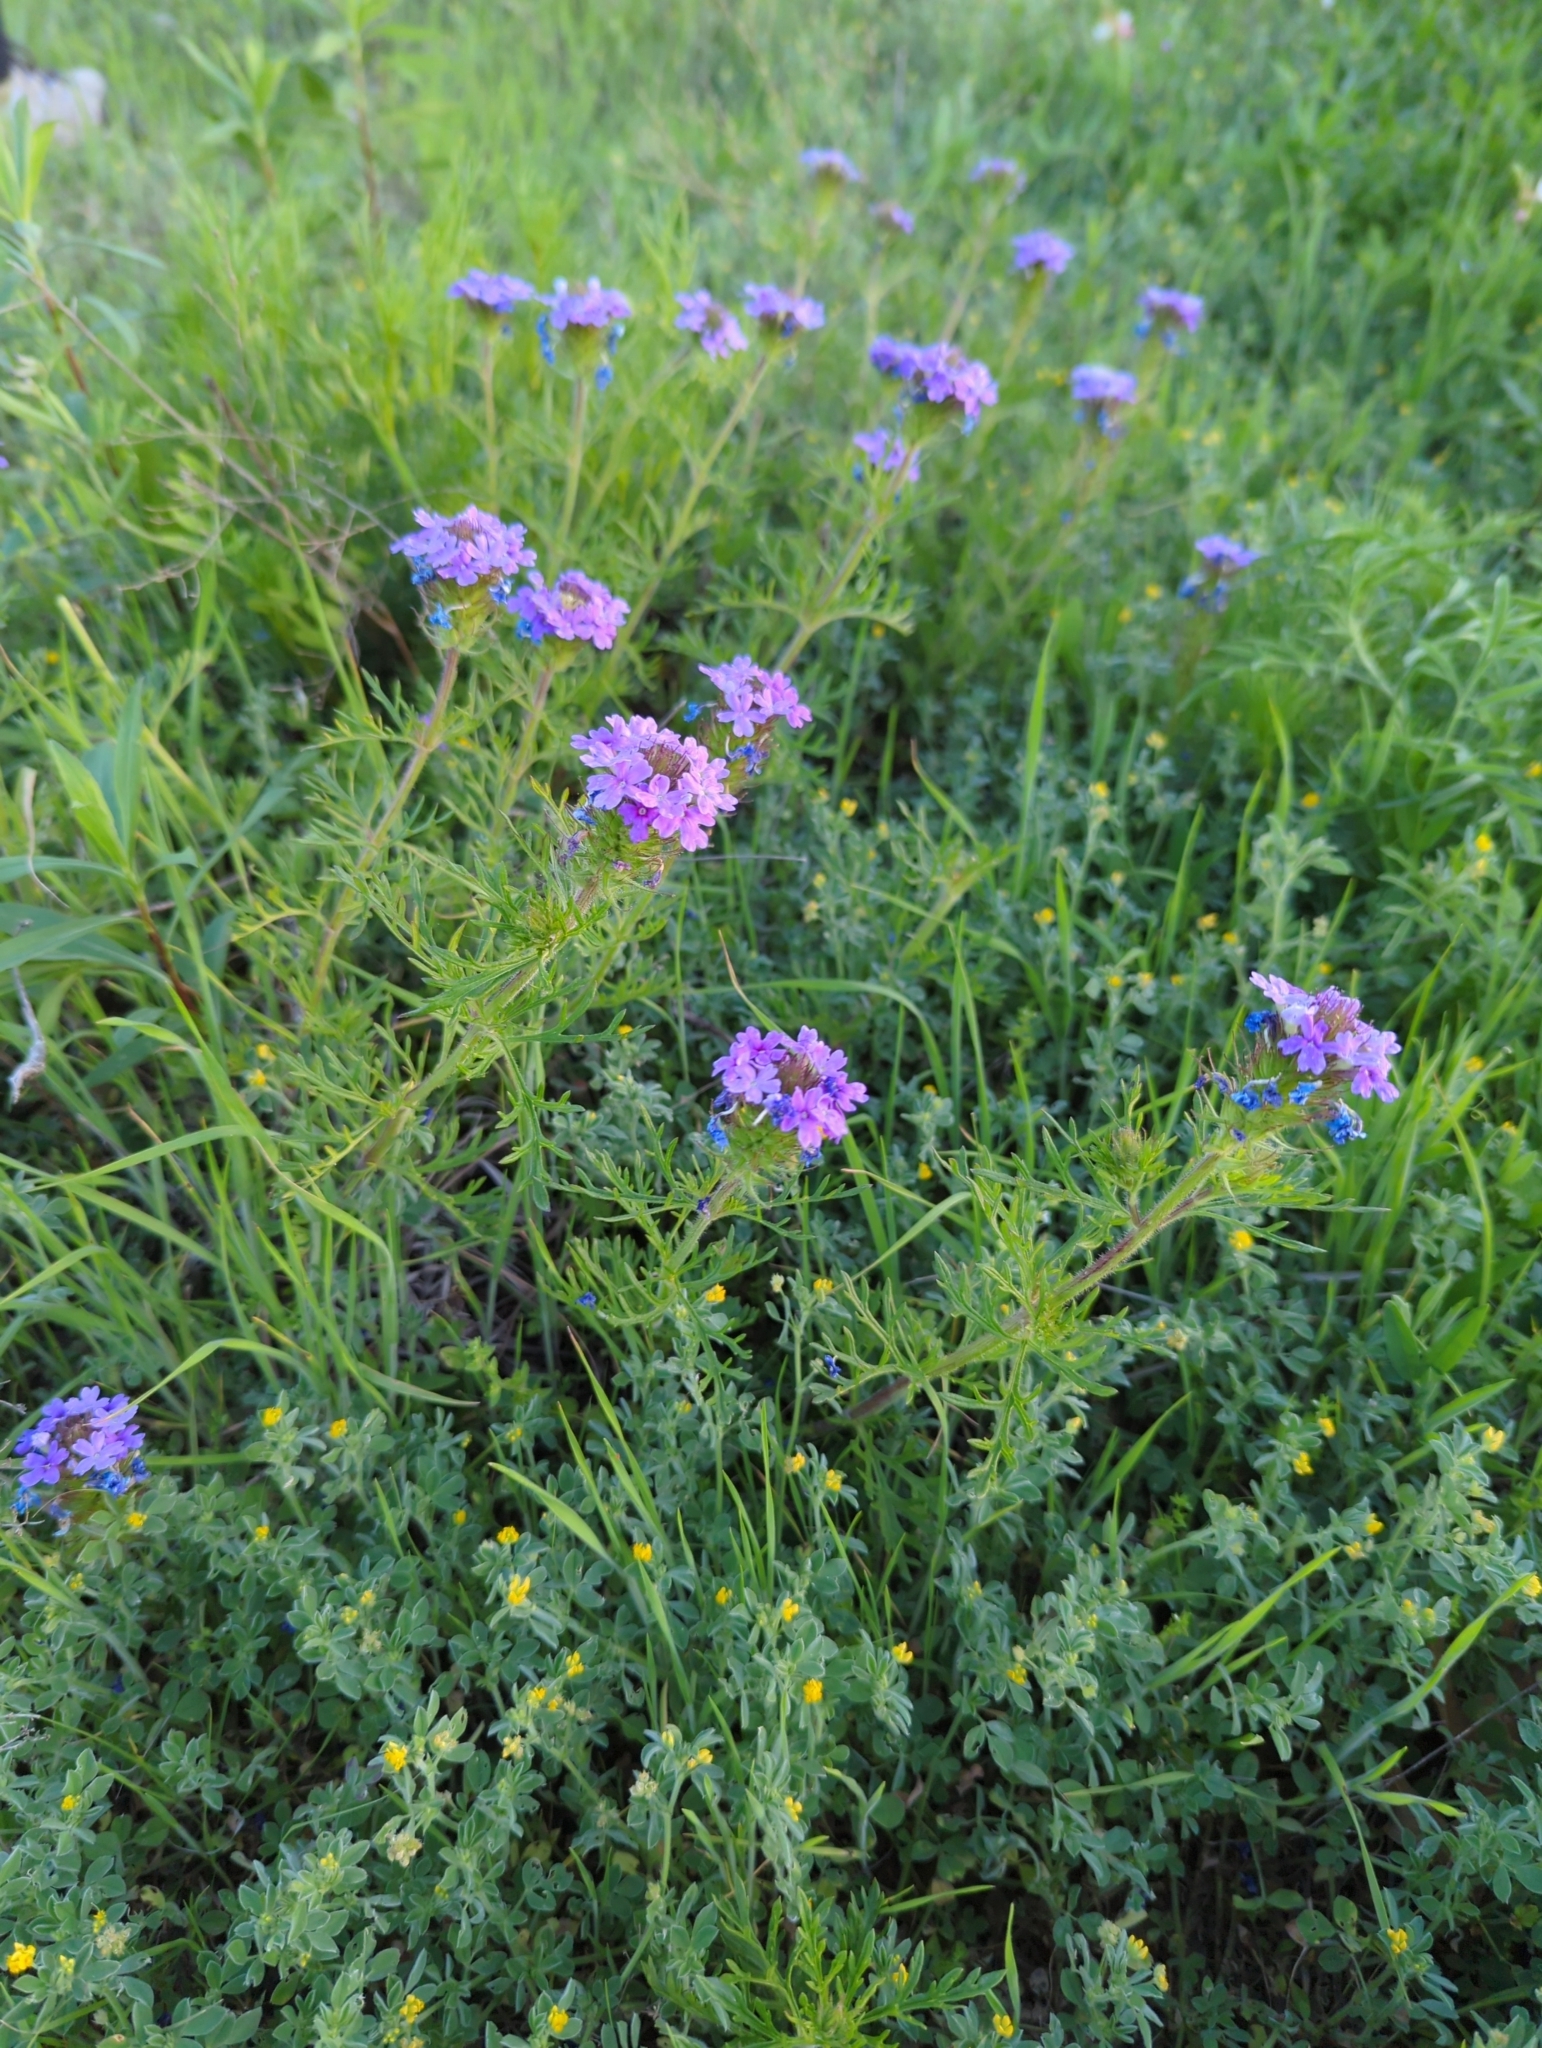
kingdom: Plantae
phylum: Tracheophyta
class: Magnoliopsida
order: Lamiales
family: Verbenaceae
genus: Verbena
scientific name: Verbena bipinnatifida
